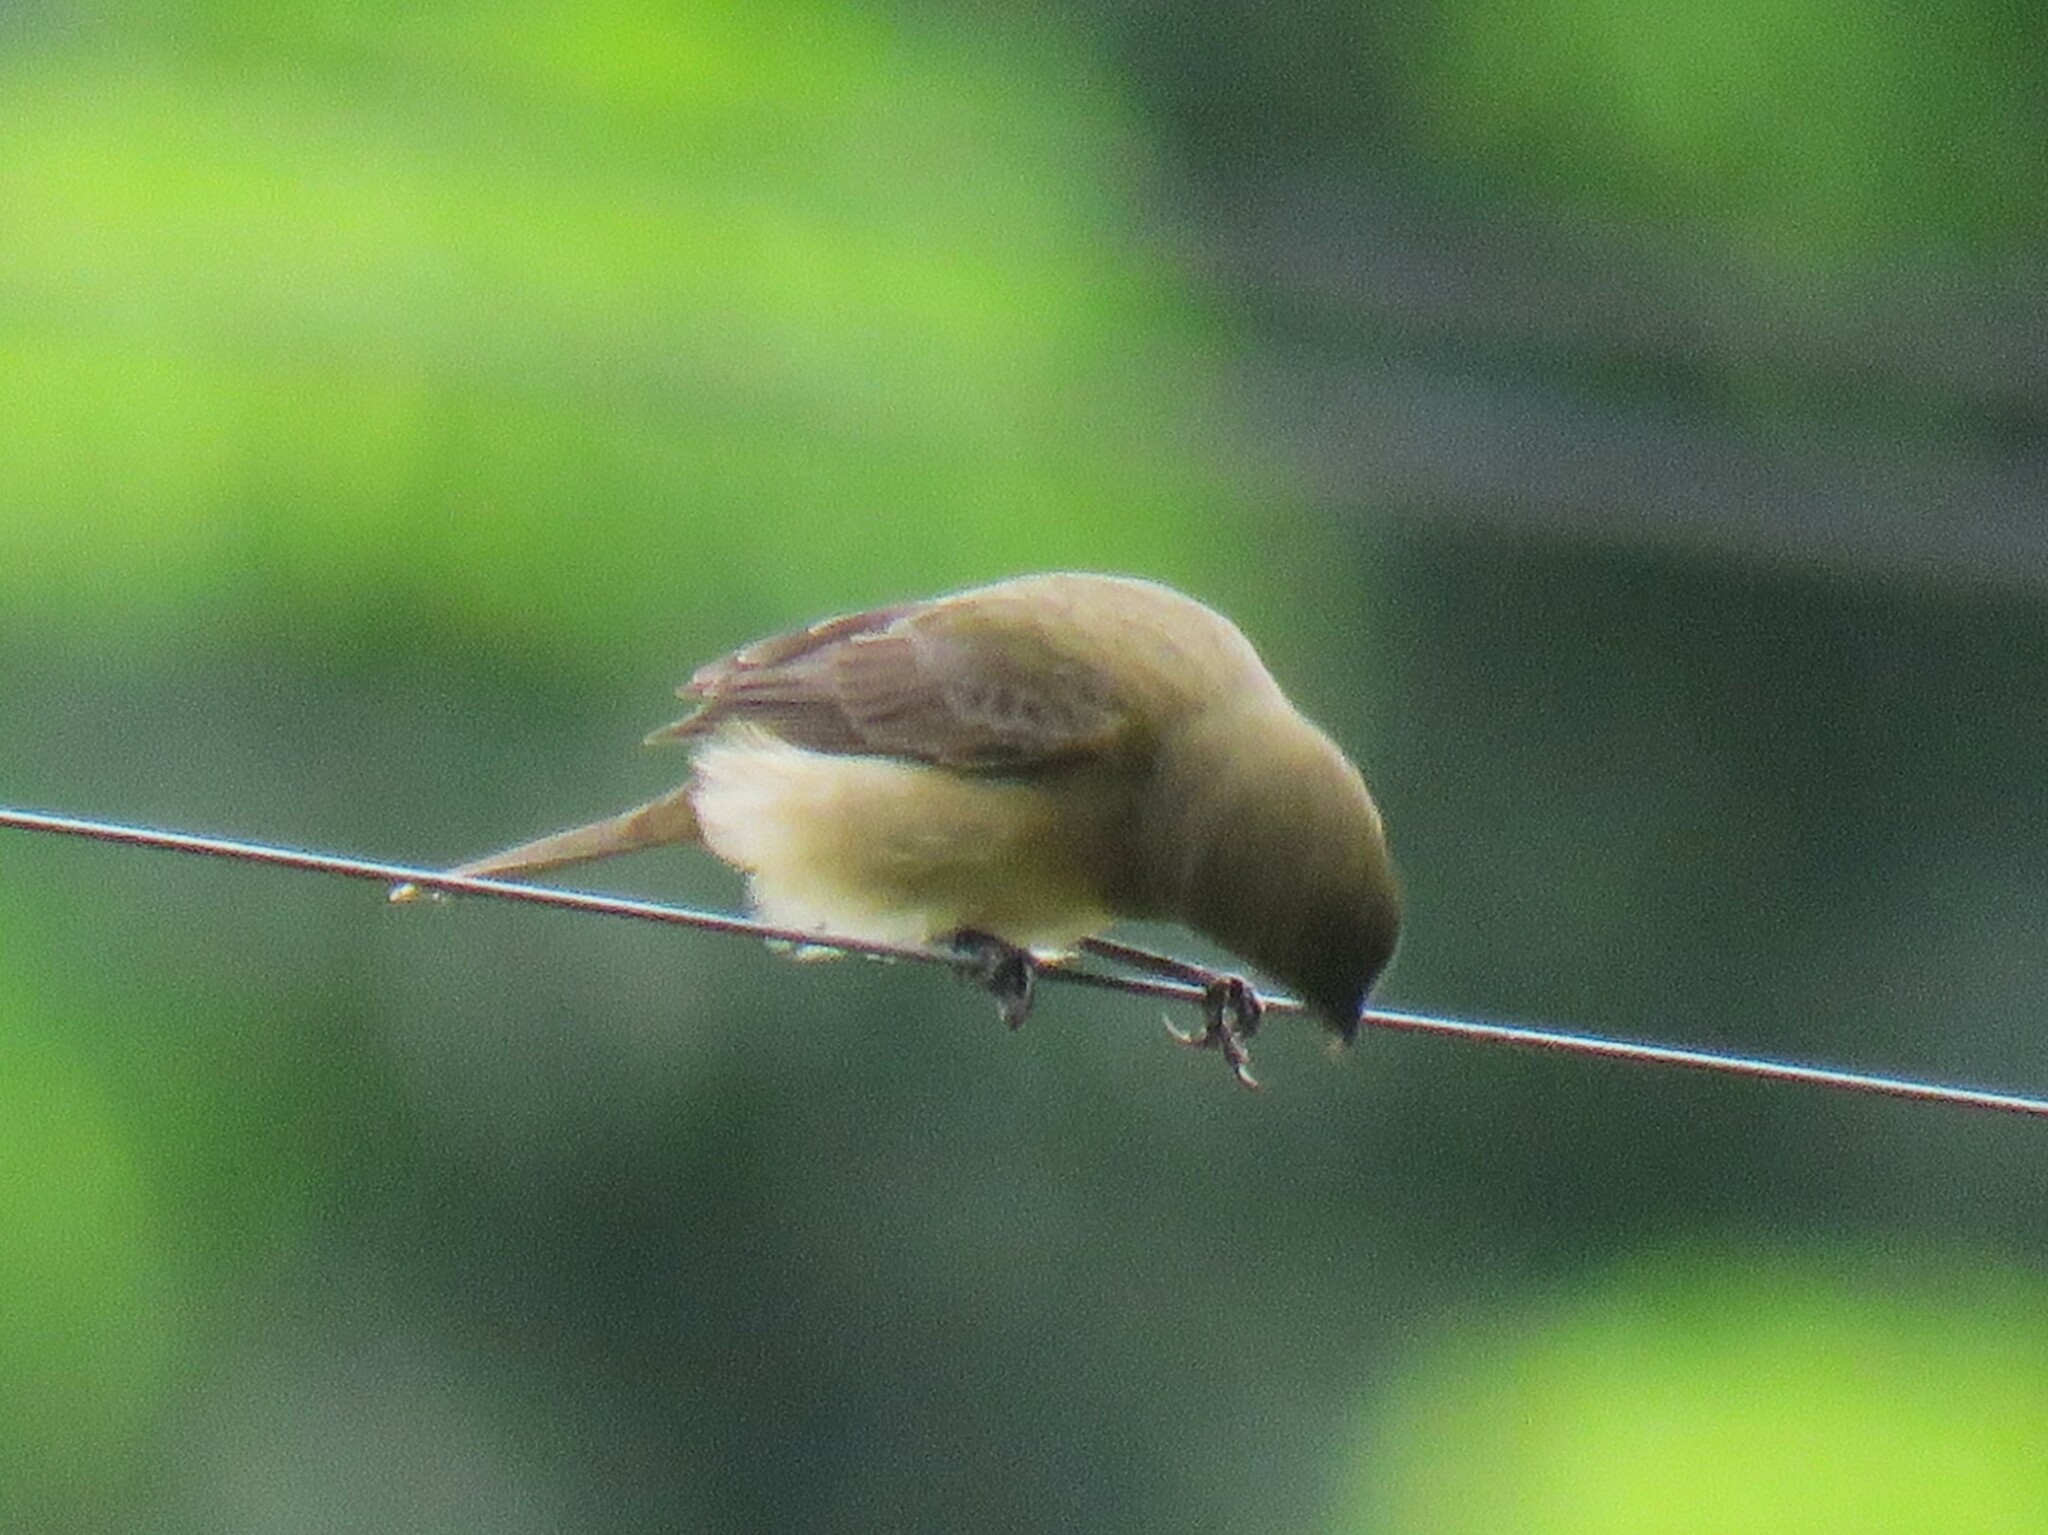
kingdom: Animalia
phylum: Chordata
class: Aves
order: Passeriformes
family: Thraupidae
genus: Sporophila
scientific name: Sporophila nigricollis
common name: Yellow-bellied seedeater
